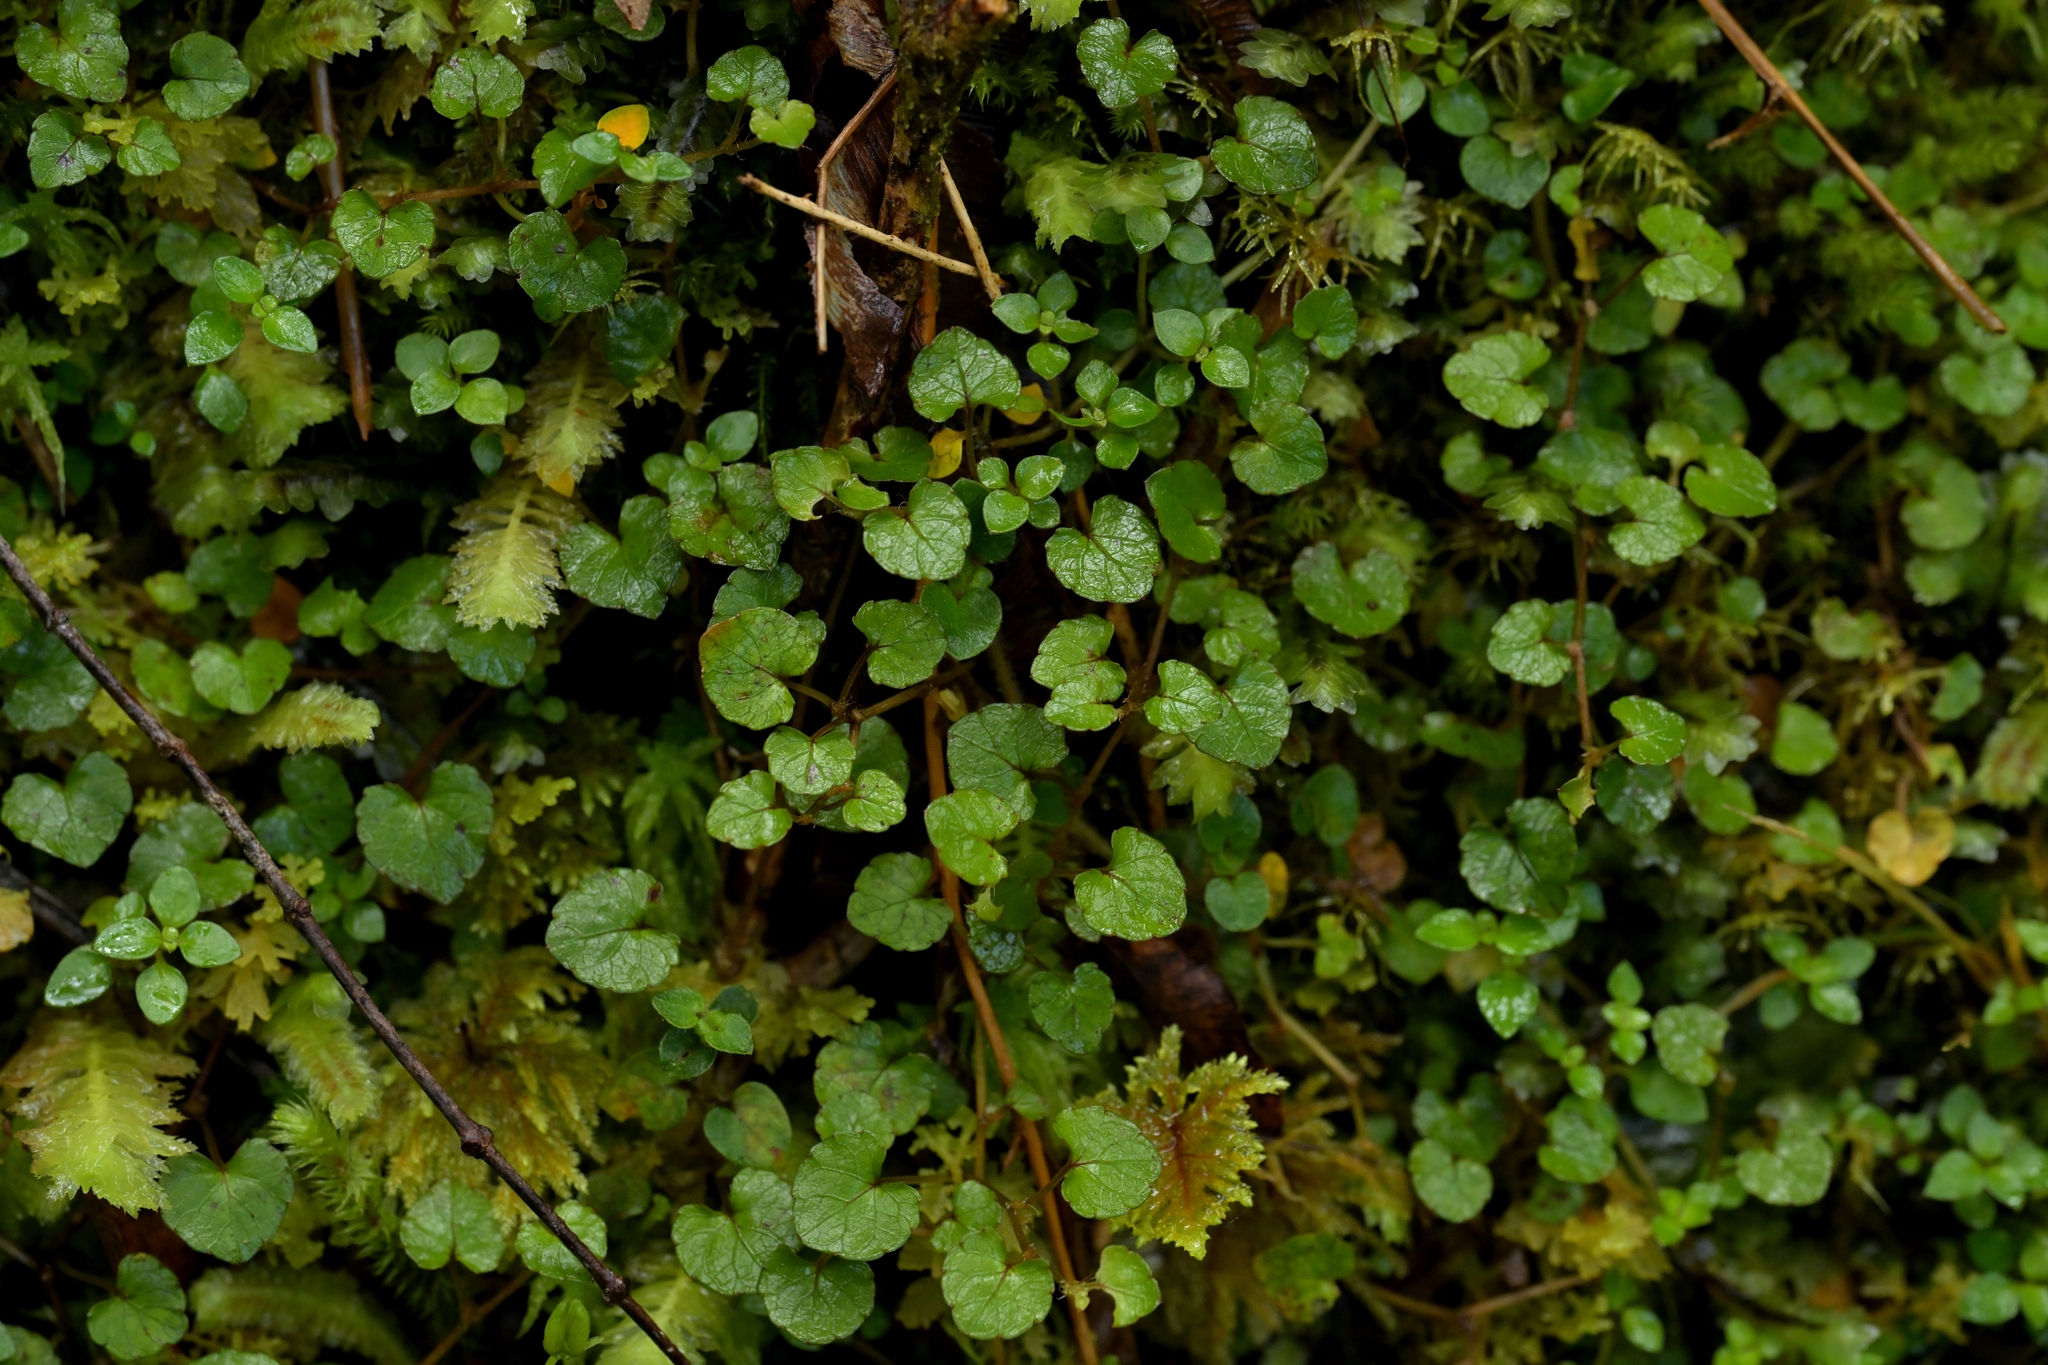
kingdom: Plantae
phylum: Tracheophyta
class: Magnoliopsida
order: Malpighiales
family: Violaceae
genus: Viola
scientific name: Viola filicaulis
